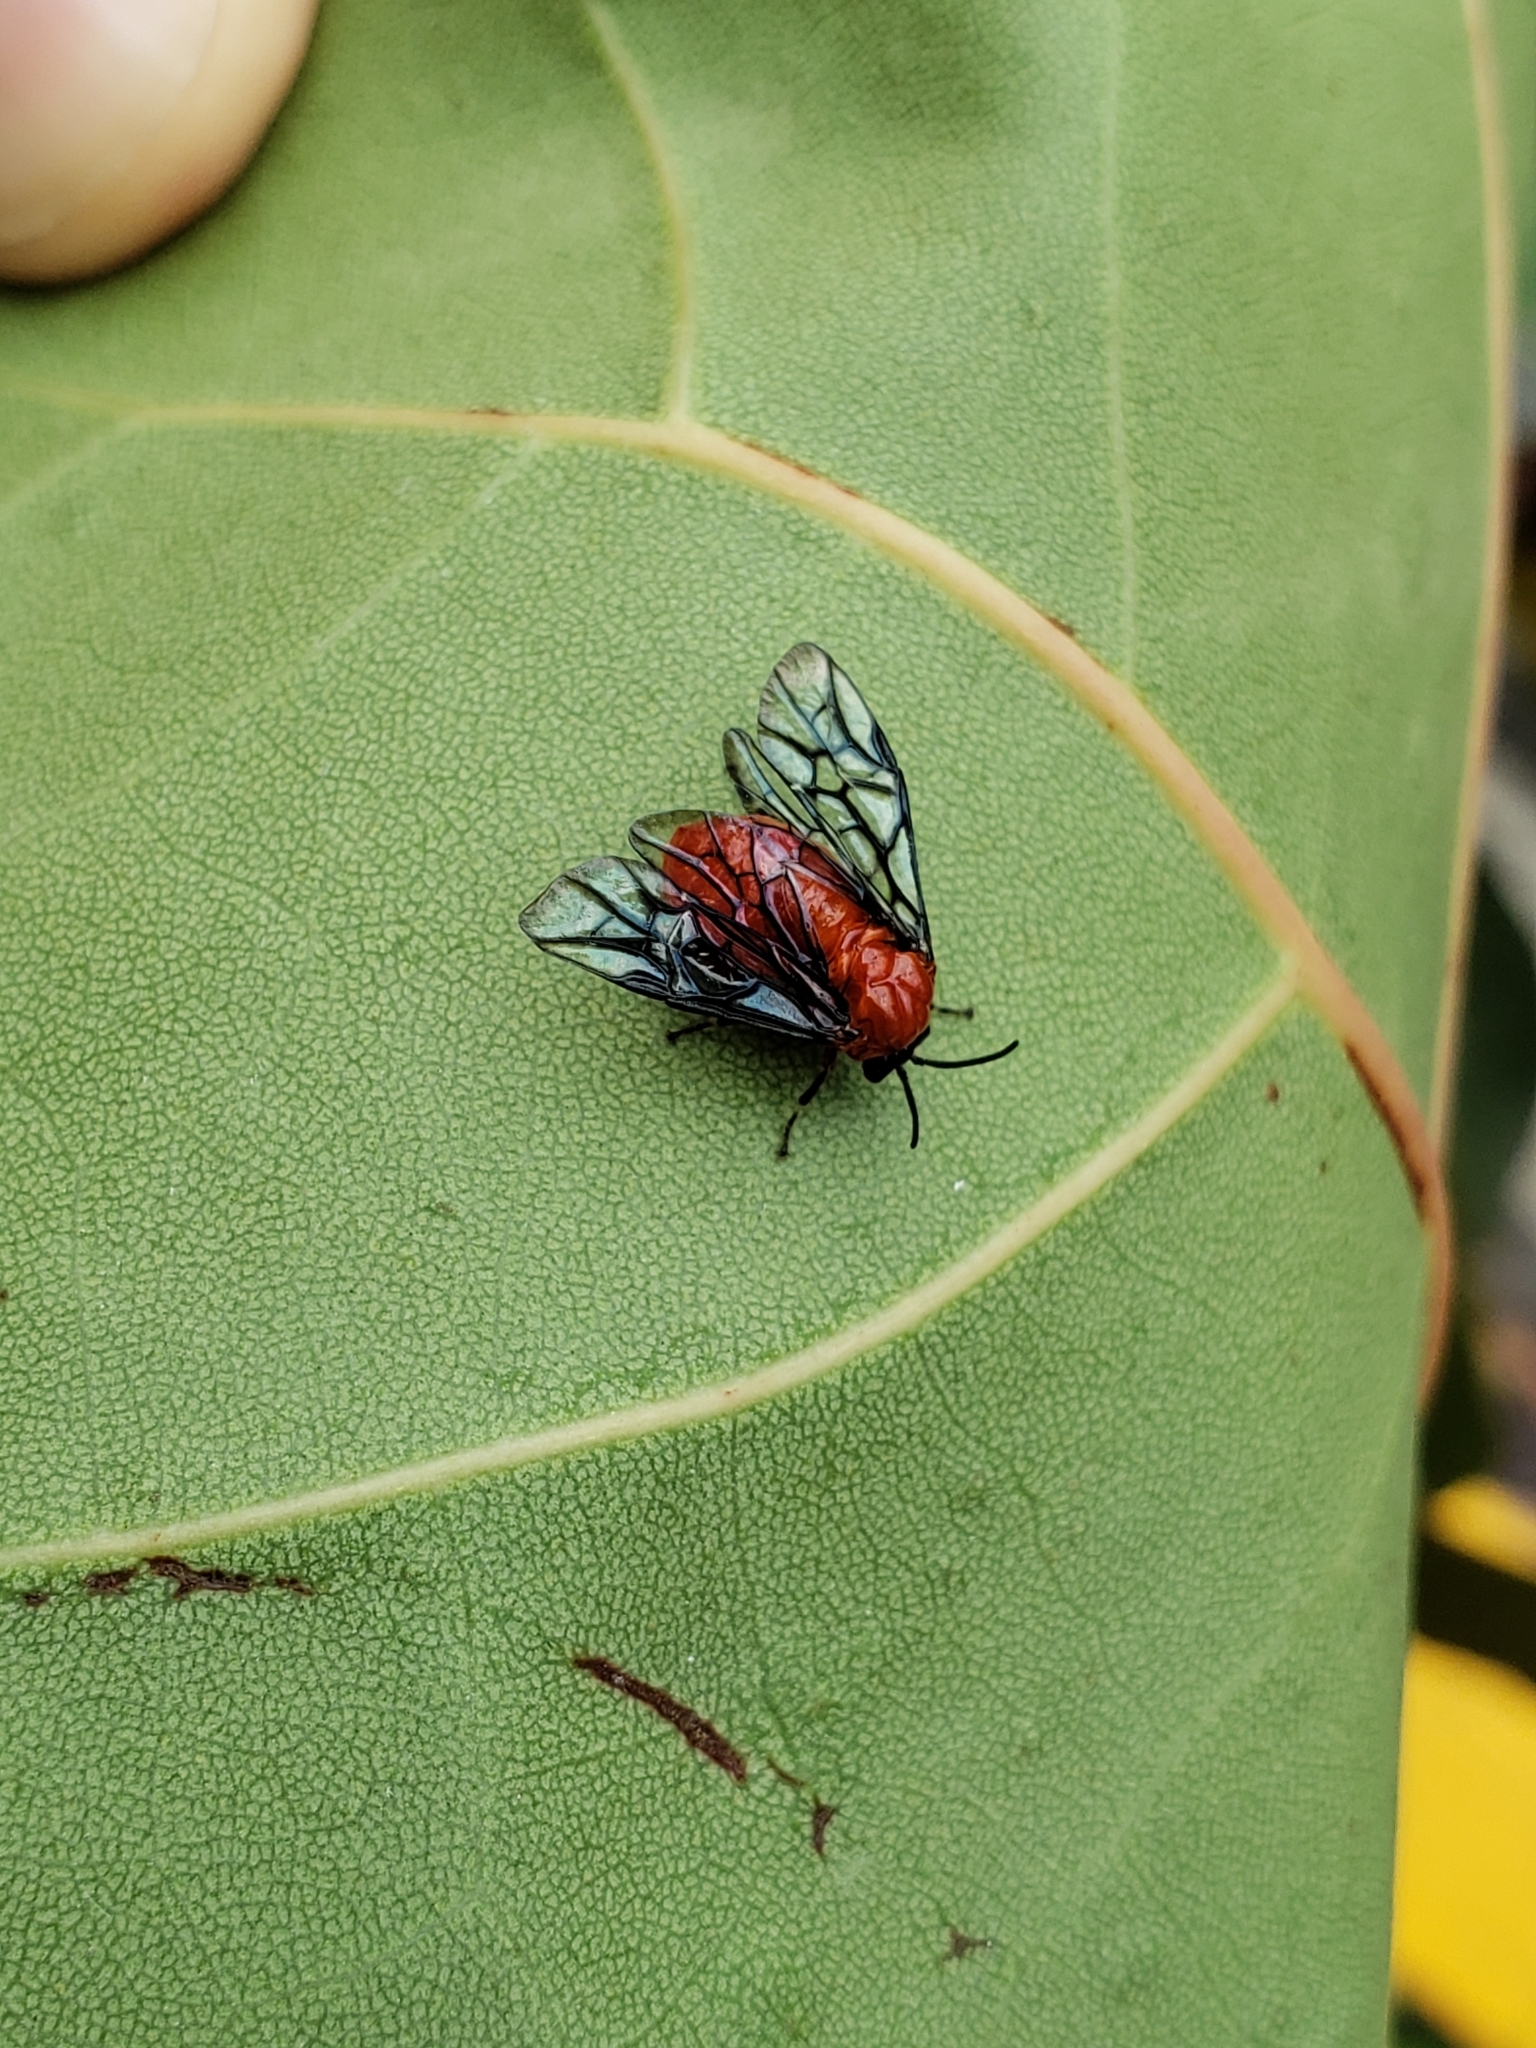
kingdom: Animalia
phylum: Arthropoda
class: Insecta
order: Hymenoptera
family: Argidae
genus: Sericoceros
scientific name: Sericoceros
